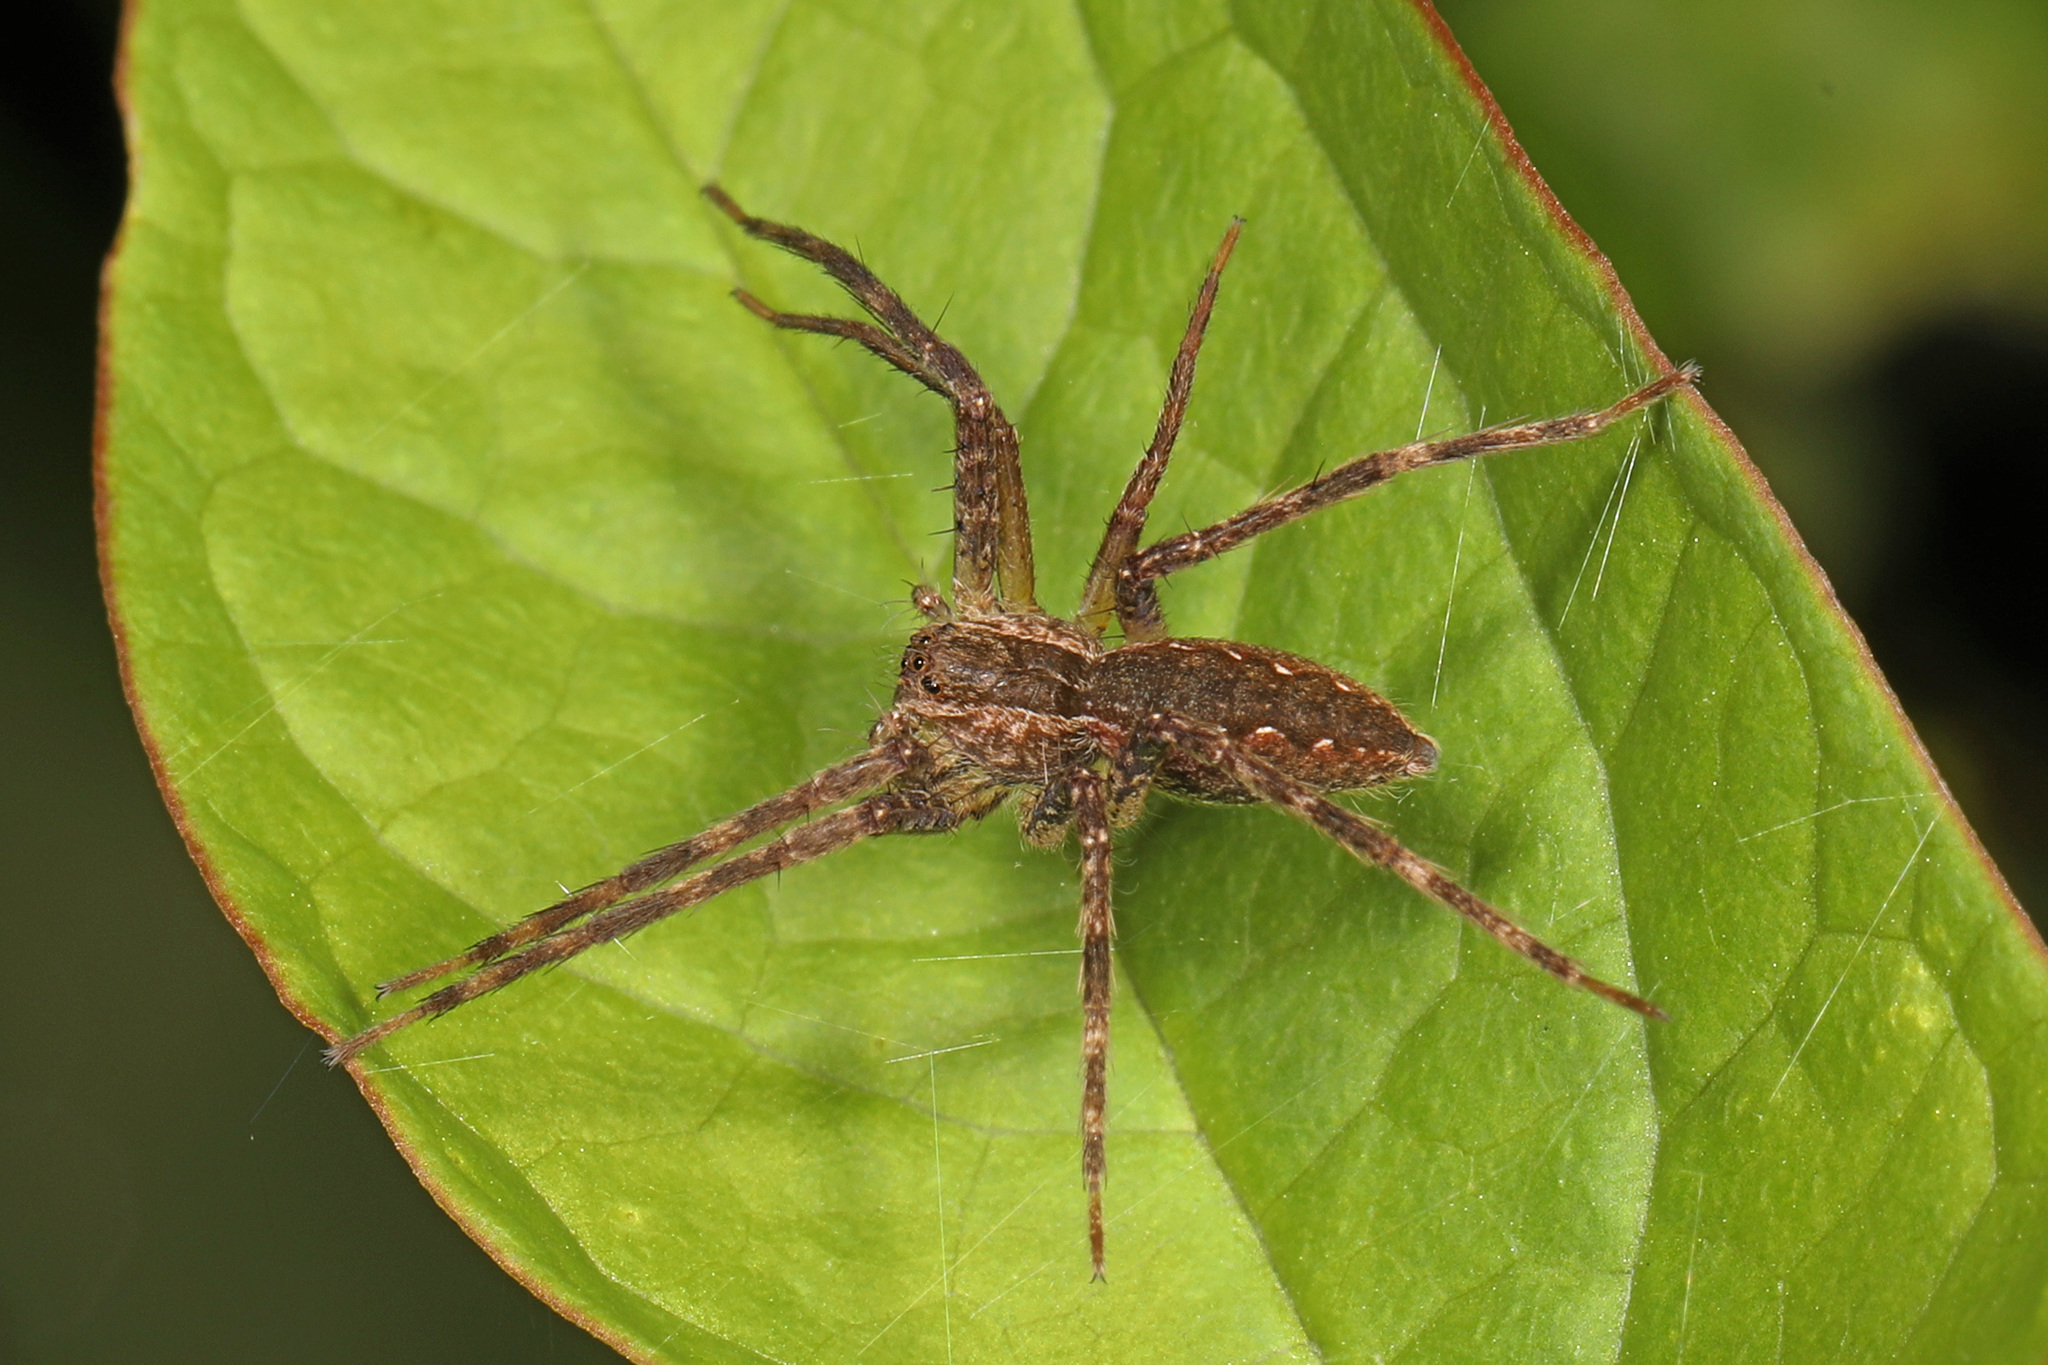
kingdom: Animalia
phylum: Arthropoda
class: Arachnida
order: Araneae
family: Pisauridae
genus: Pisaurina
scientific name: Pisaurina mira
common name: American nursery web spider
